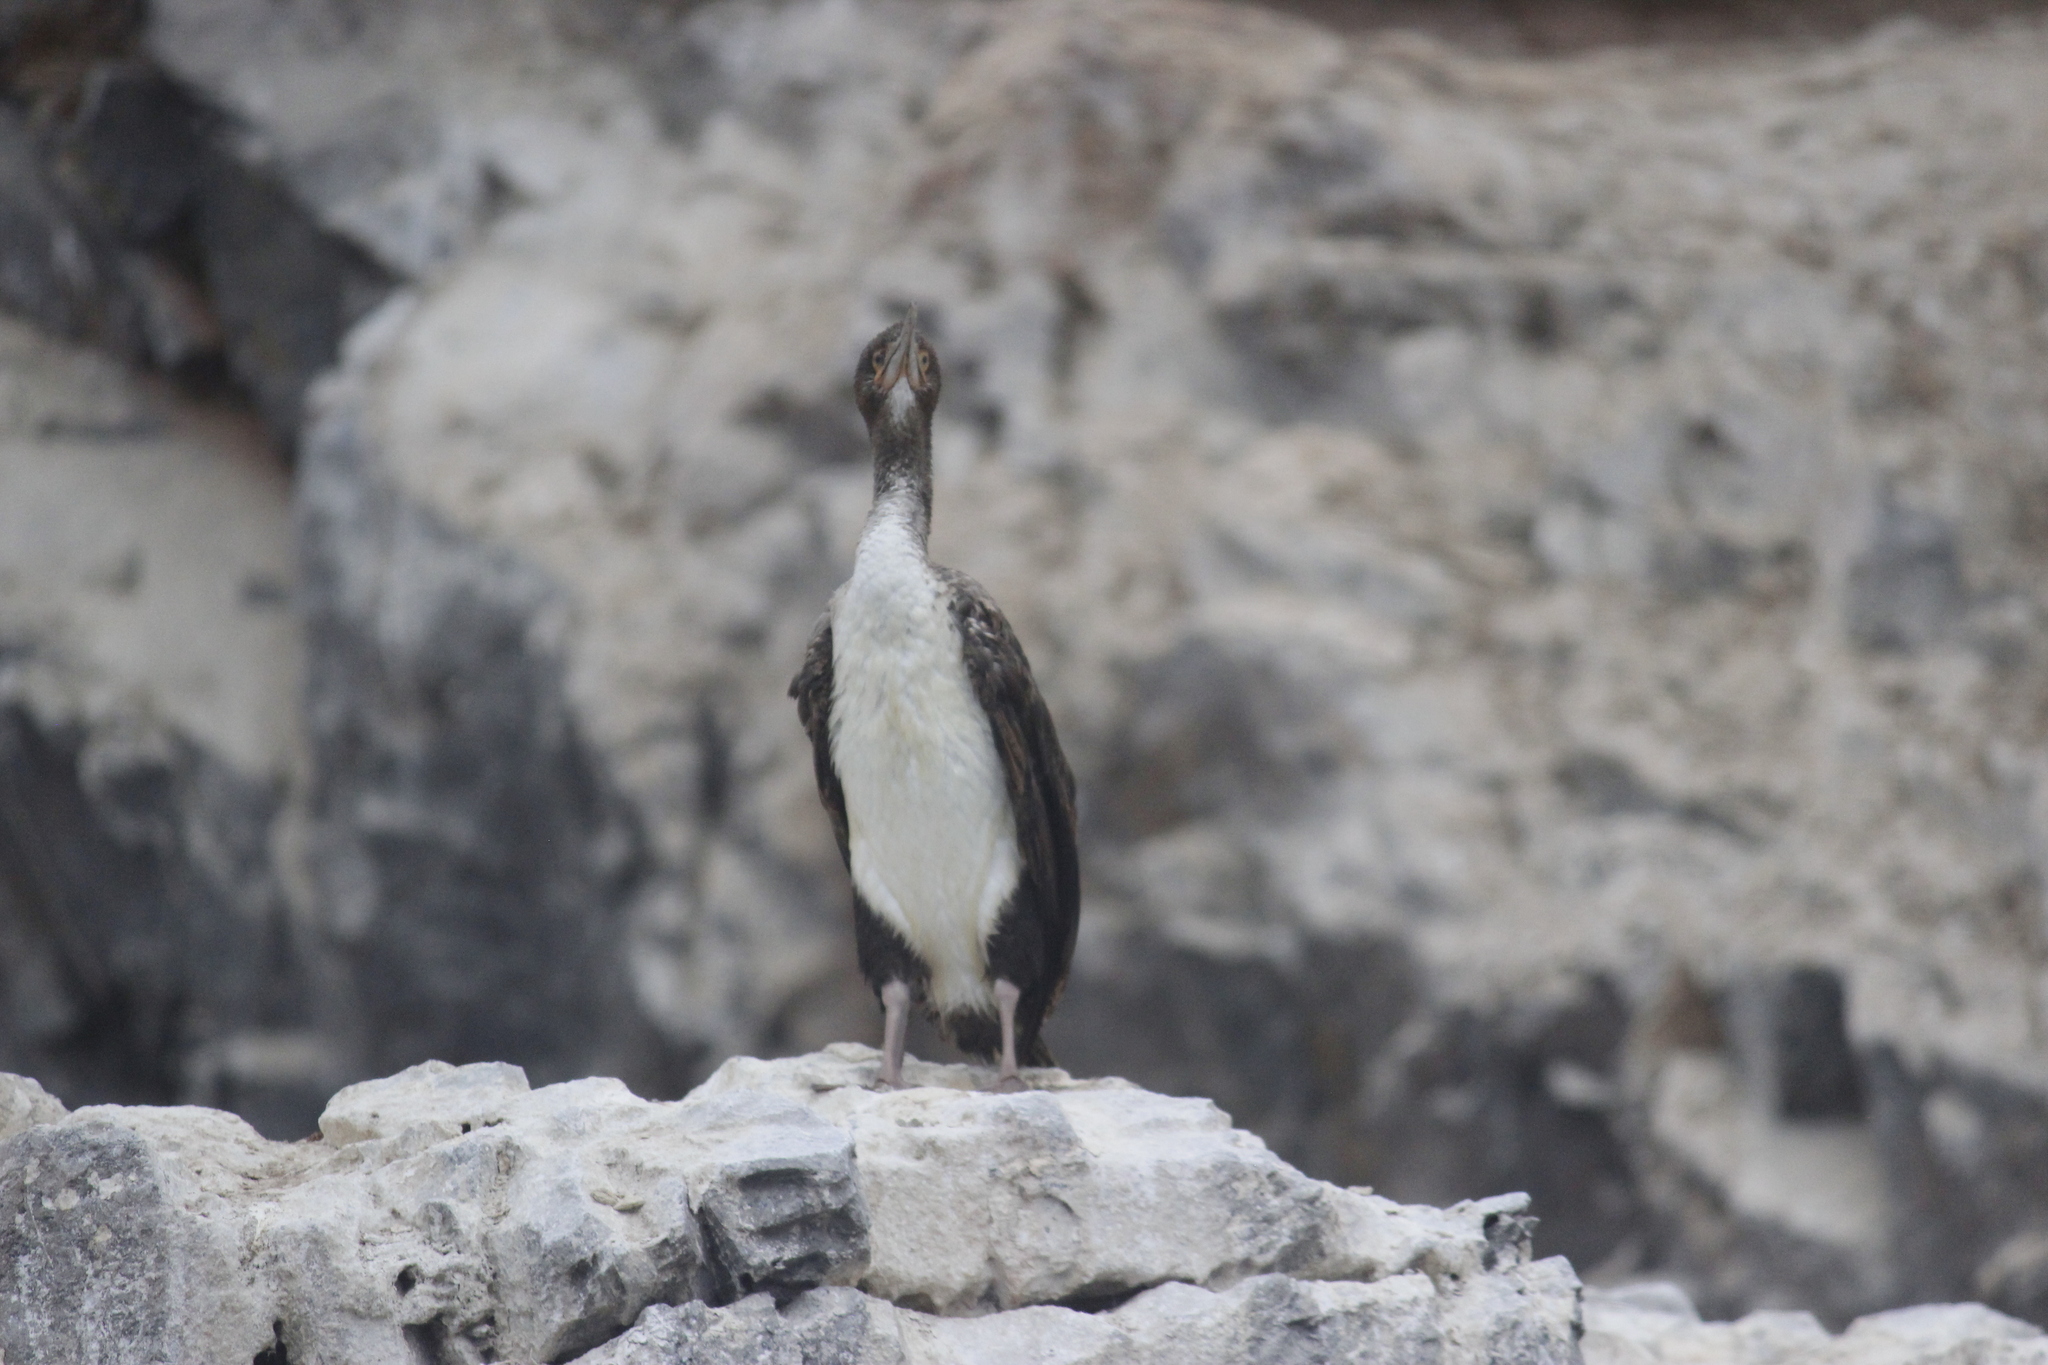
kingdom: Animalia
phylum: Chordata
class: Aves
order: Suliformes
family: Phalacrocoracidae
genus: Leucocarbo
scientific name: Leucocarbo bougainvillii
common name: Guanay cormorant
